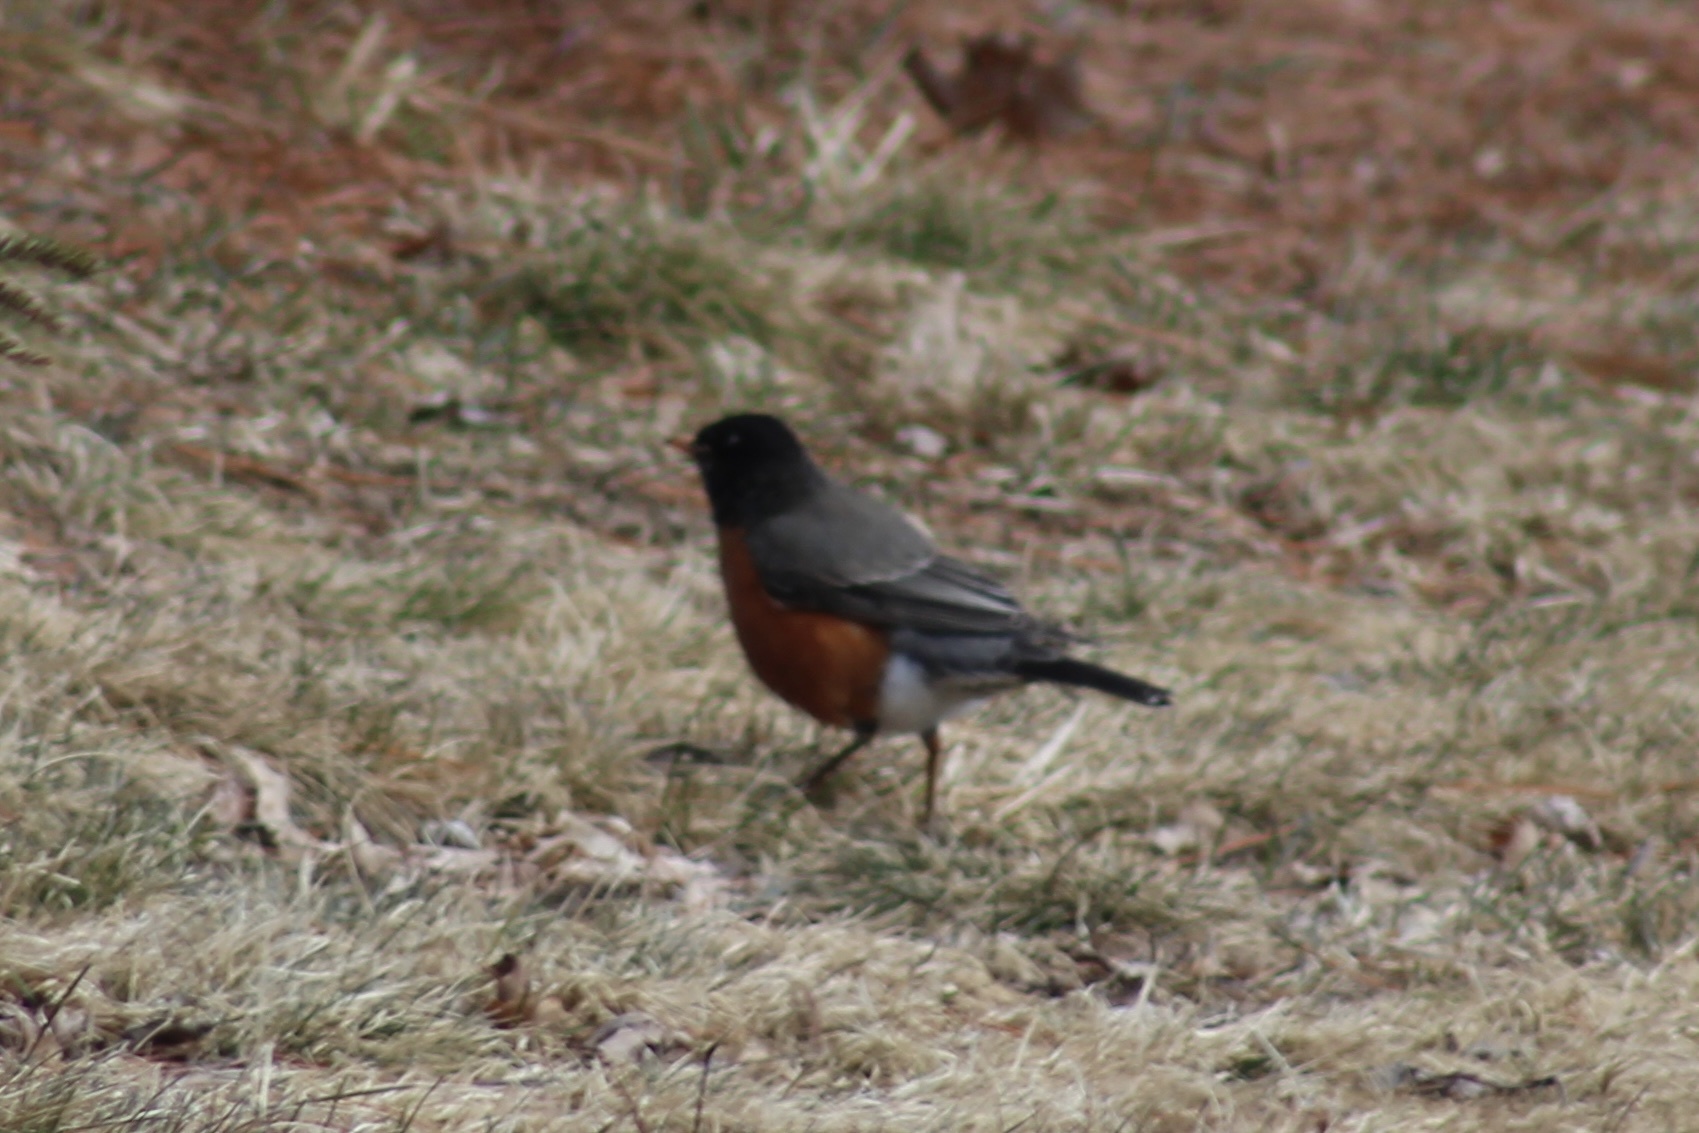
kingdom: Animalia
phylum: Chordata
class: Aves
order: Passeriformes
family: Turdidae
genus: Turdus
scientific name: Turdus migratorius
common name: American robin
